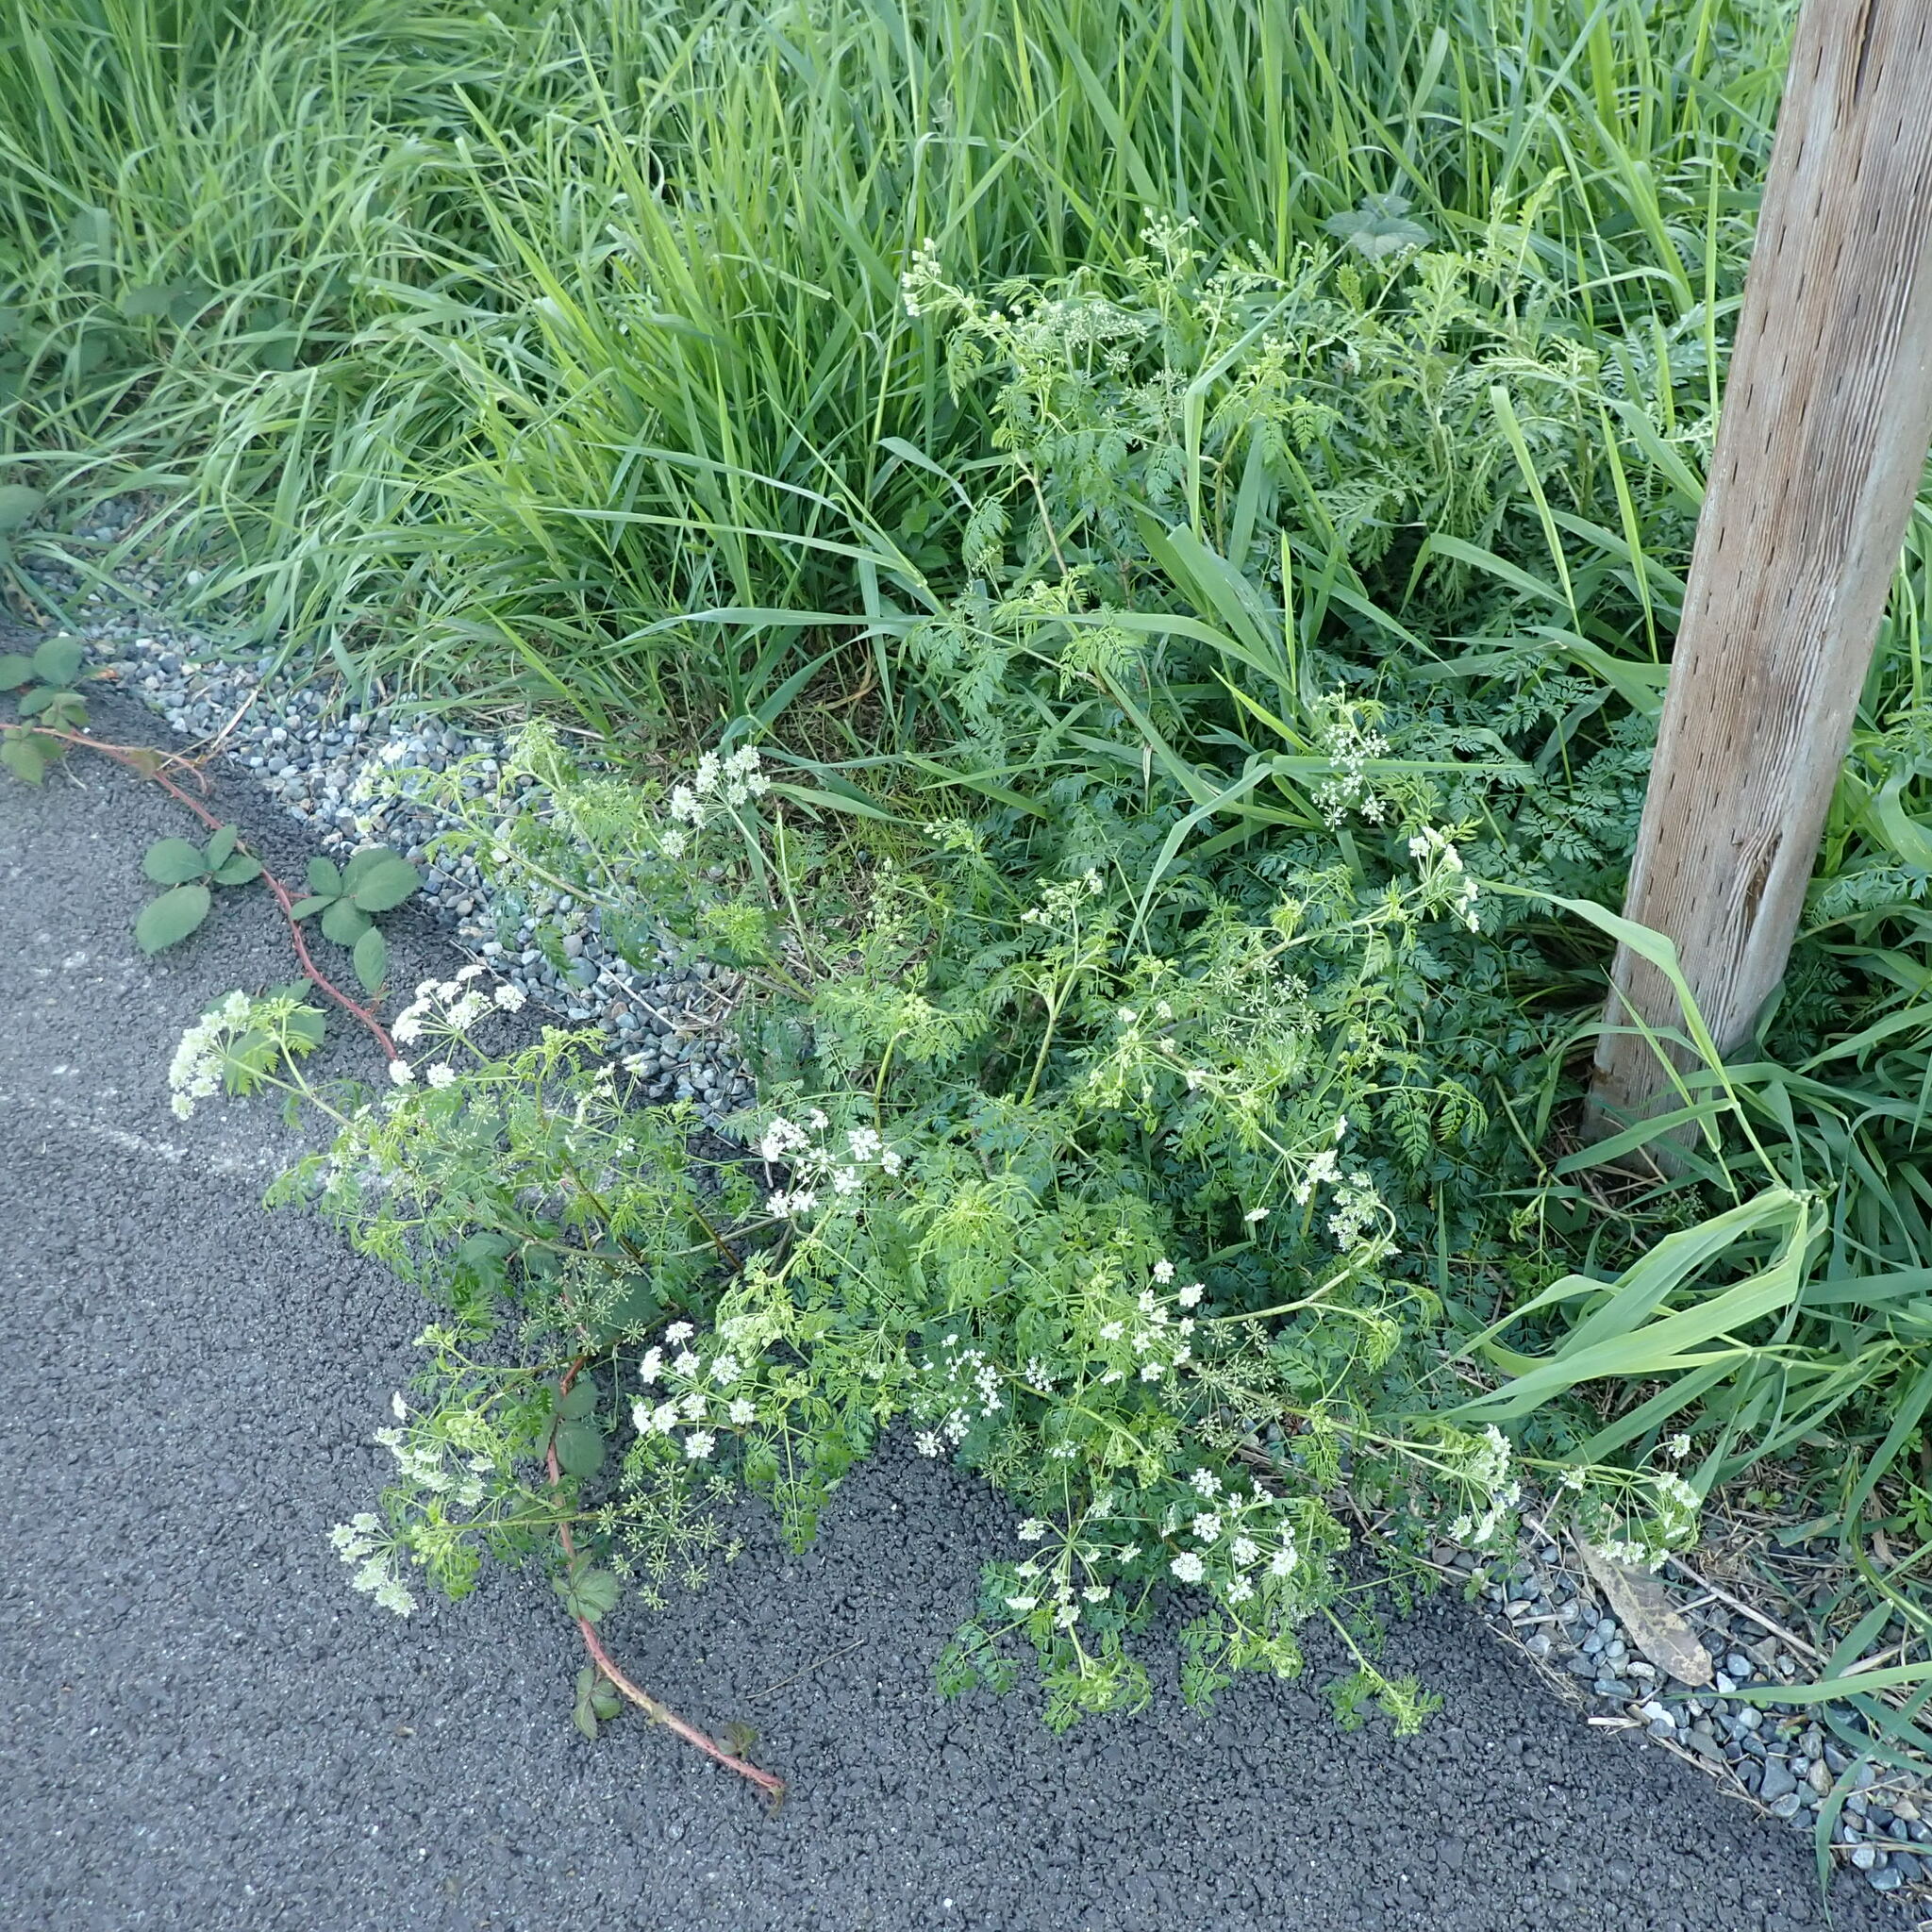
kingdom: Plantae
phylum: Tracheophyta
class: Magnoliopsida
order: Apiales
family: Apiaceae
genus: Conium
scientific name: Conium maculatum
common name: Hemlock
